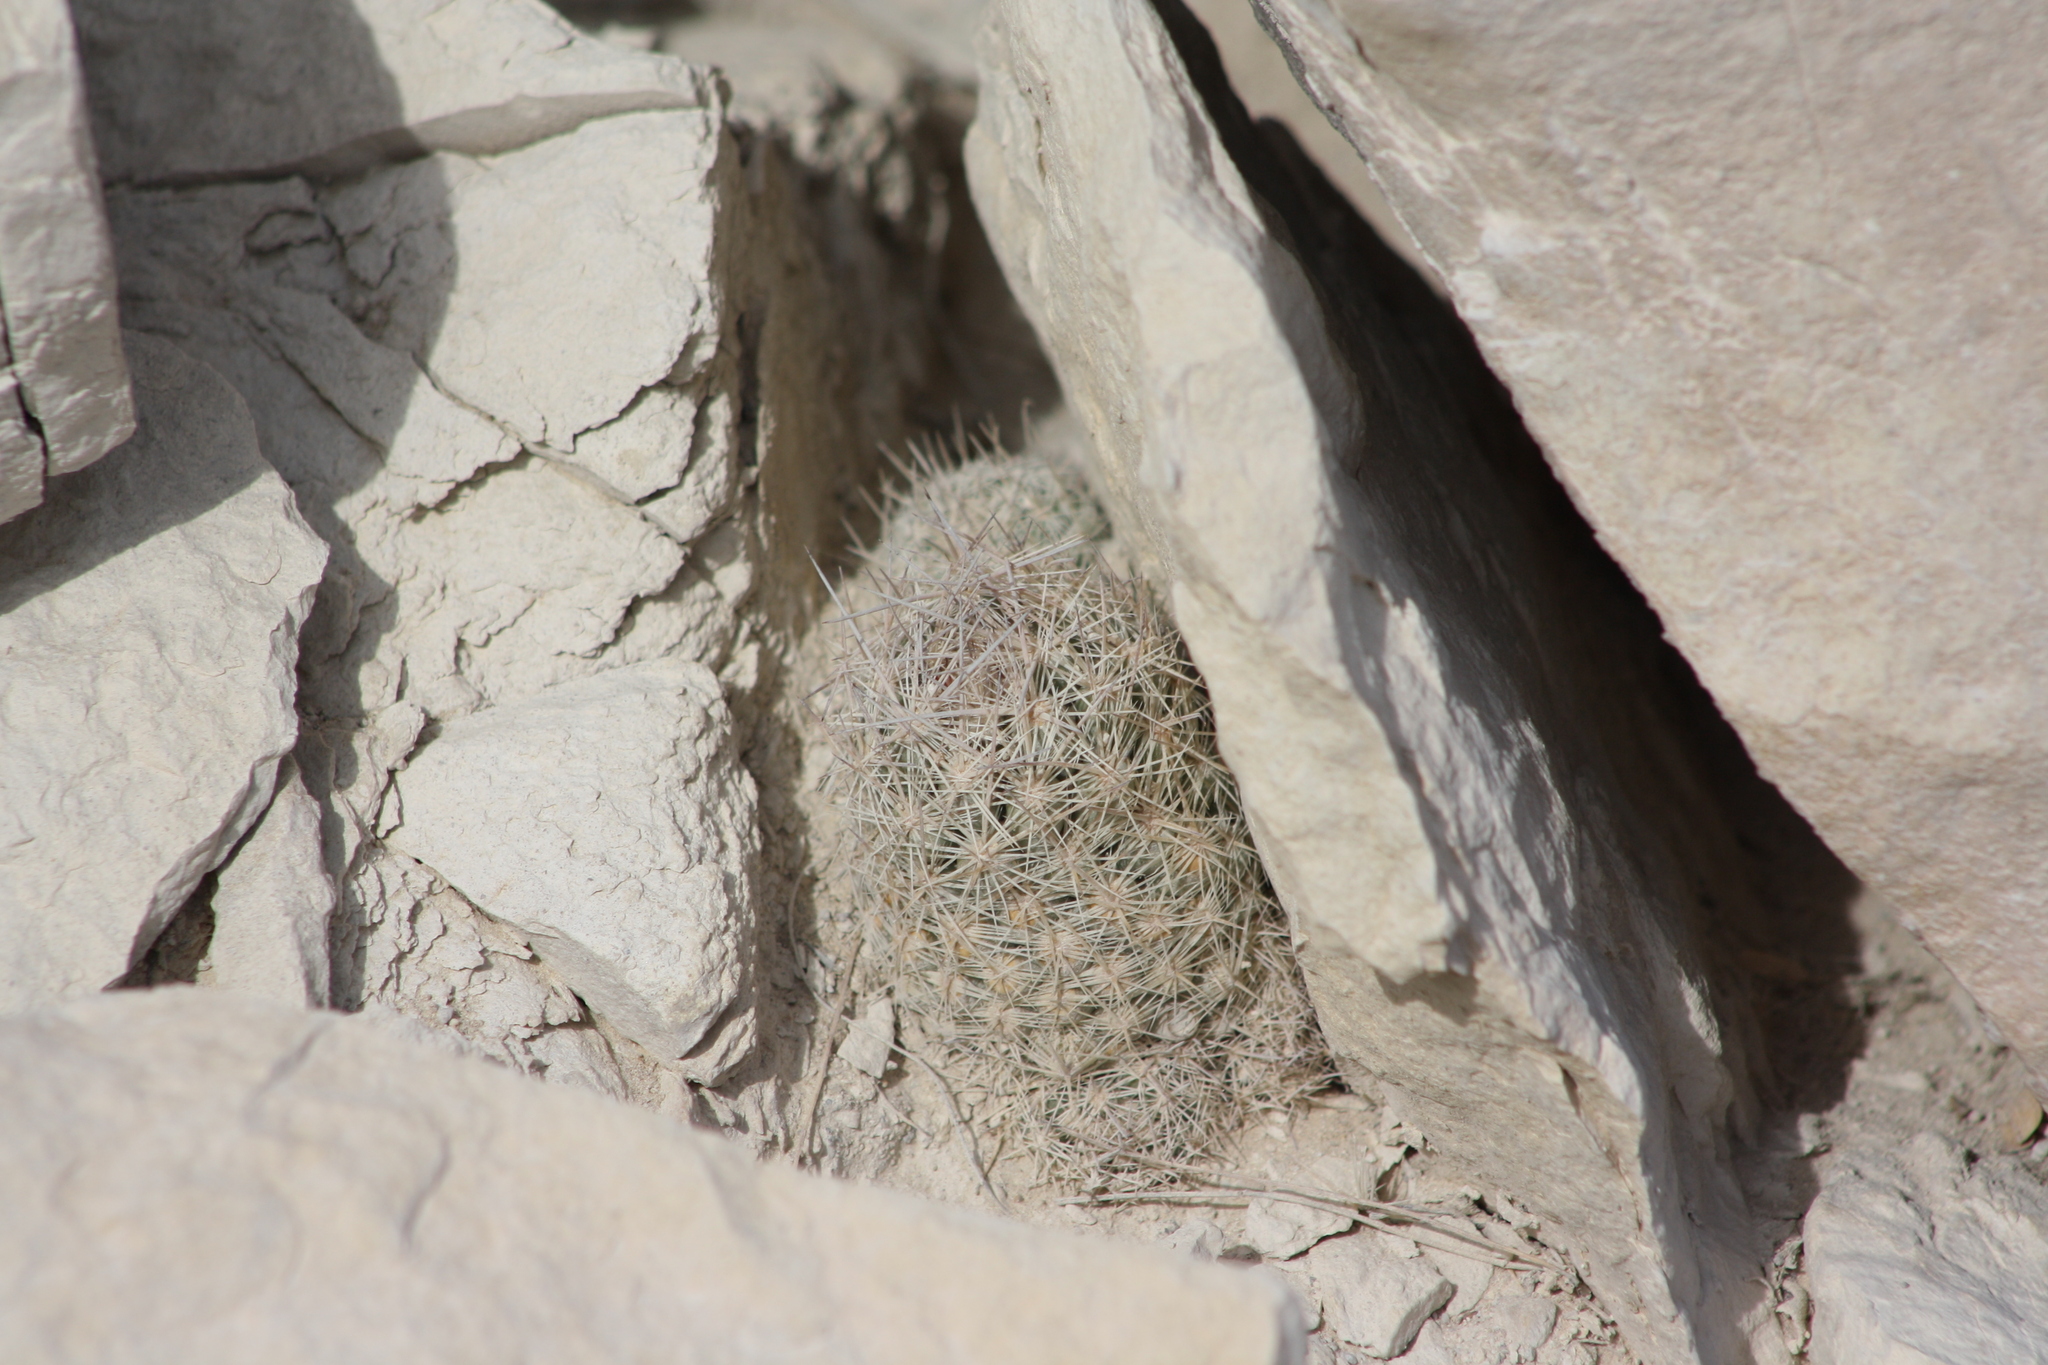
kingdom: Plantae
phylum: Tracheophyta
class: Magnoliopsida
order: Caryophyllales
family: Cactaceae
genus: Pelecyphora
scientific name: Pelecyphora tuberculosa
